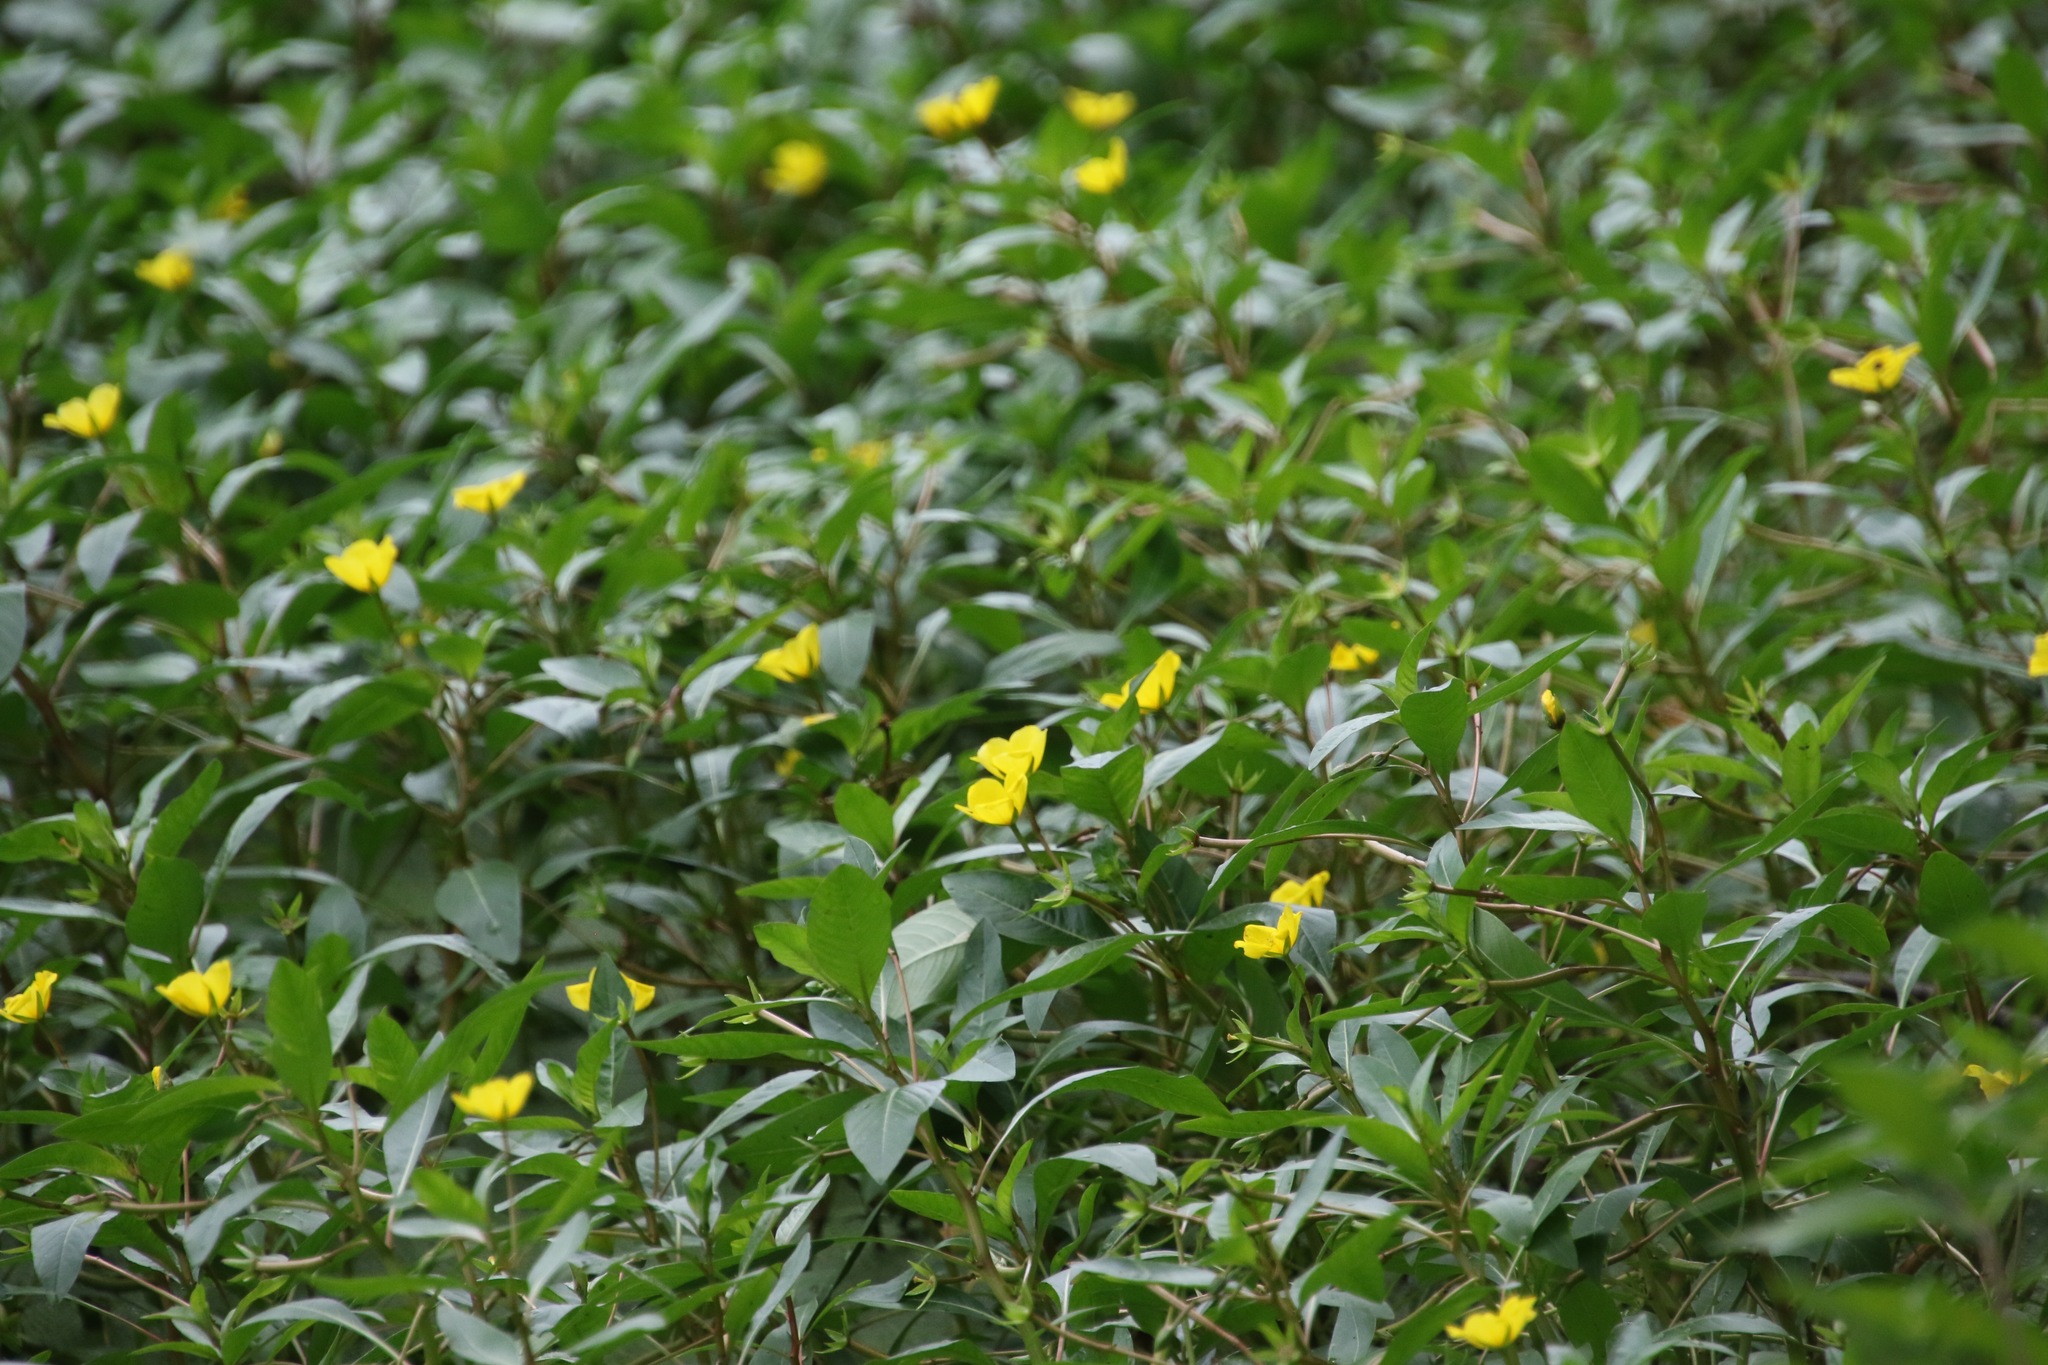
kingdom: Plantae
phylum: Tracheophyta
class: Magnoliopsida
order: Myrtales
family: Onagraceae
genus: Ludwigia
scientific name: Ludwigia peploides
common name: Floating primrose-willow
